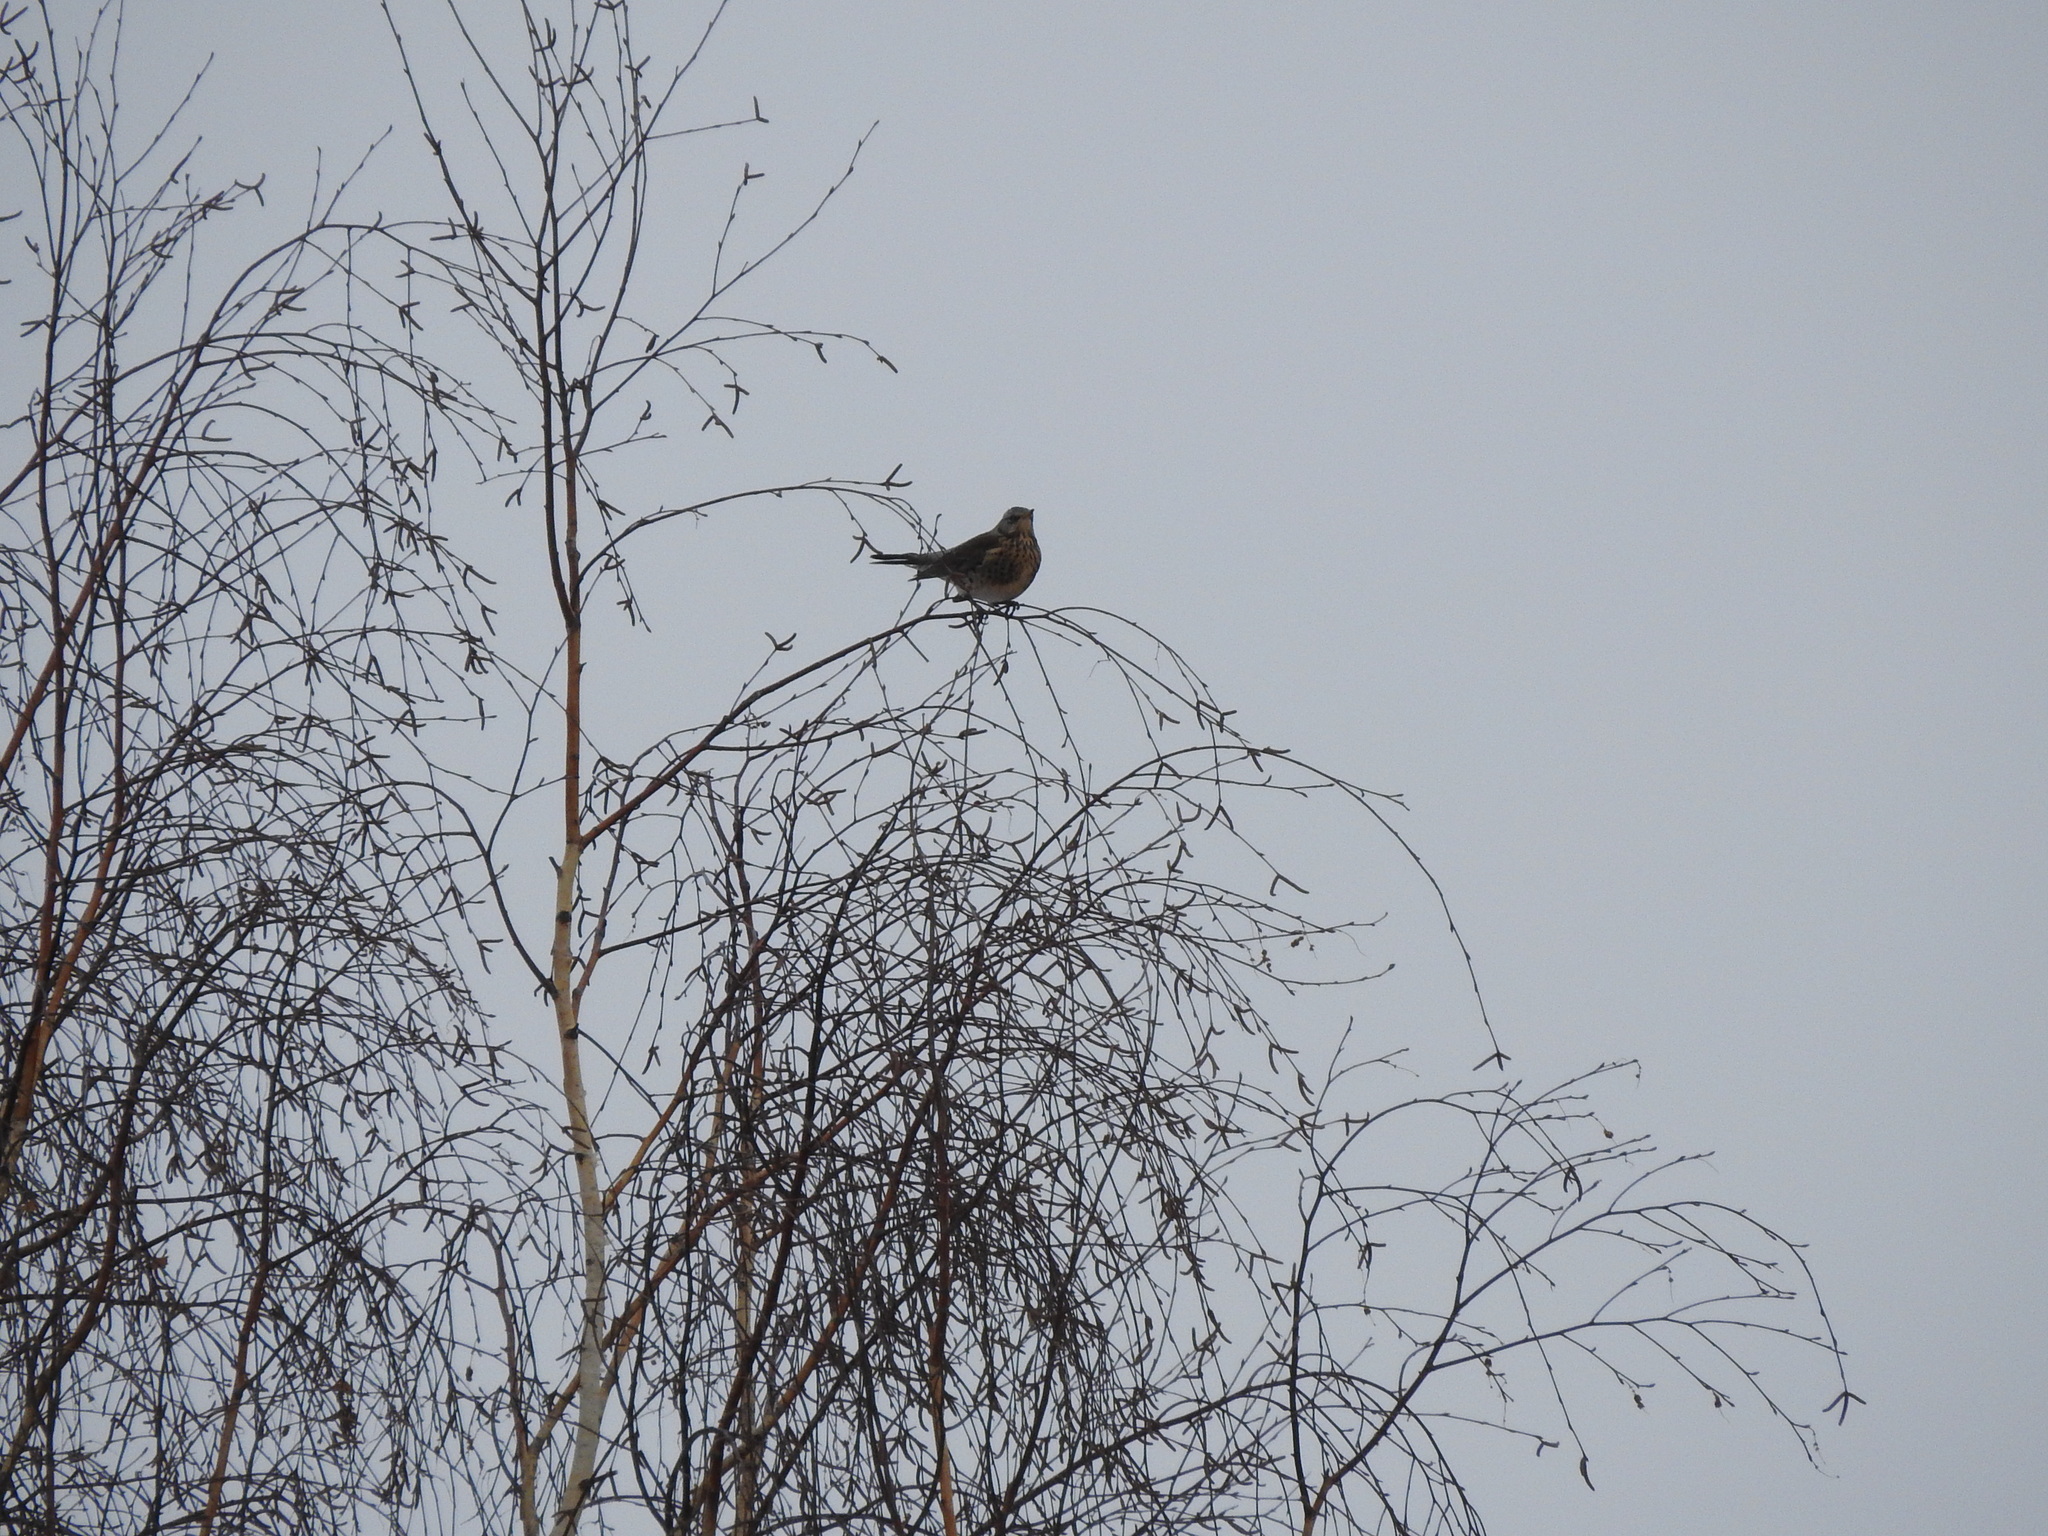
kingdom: Animalia
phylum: Chordata
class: Aves
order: Passeriformes
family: Turdidae
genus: Turdus
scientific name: Turdus pilaris
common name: Fieldfare
